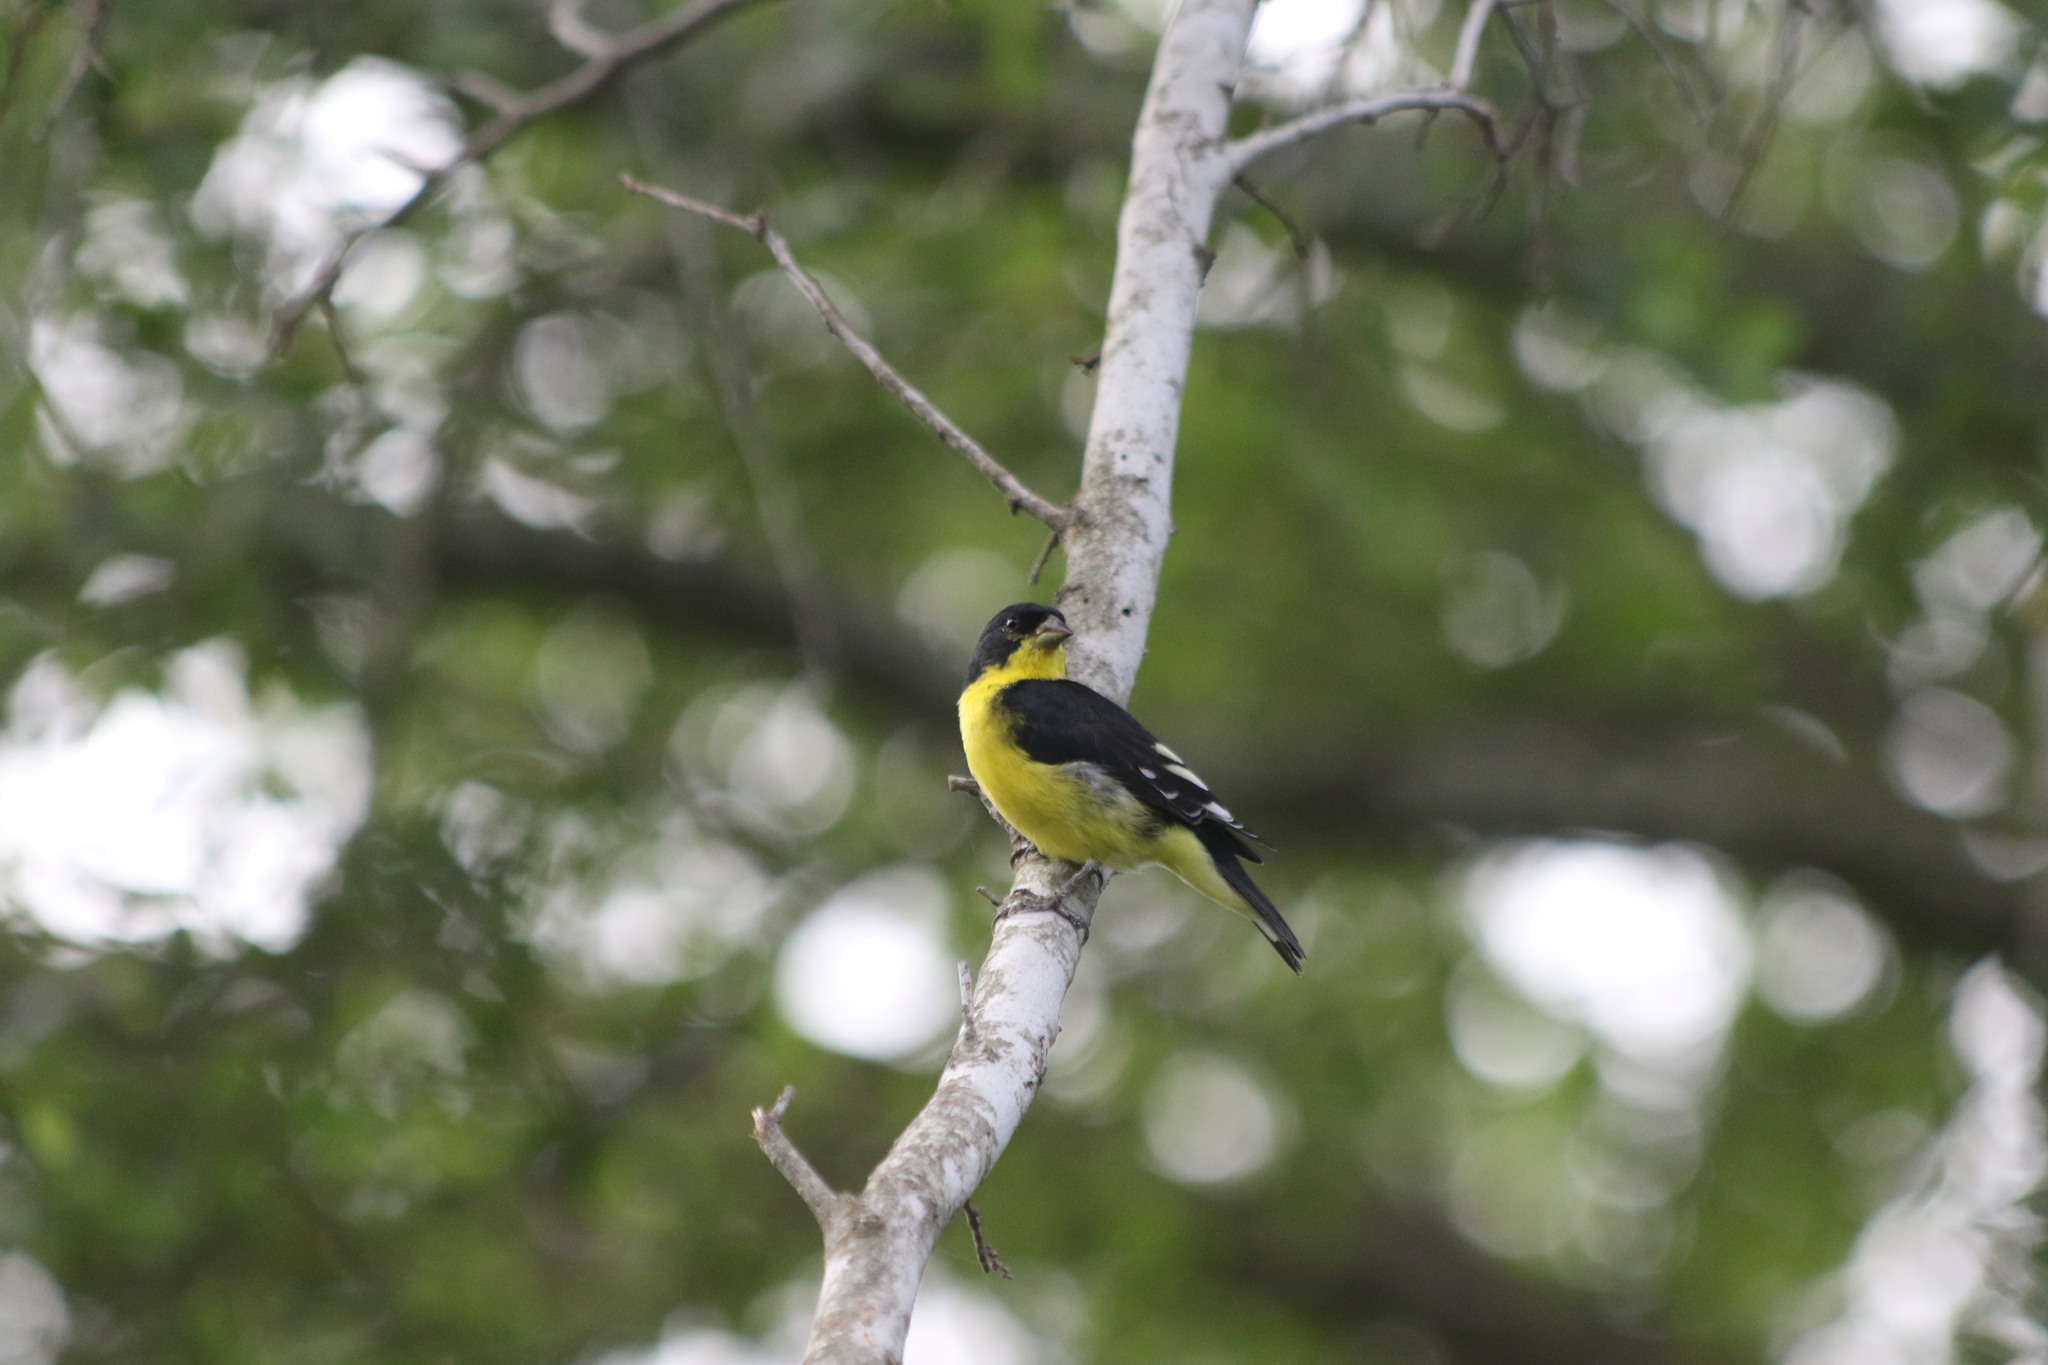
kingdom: Animalia
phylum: Chordata
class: Aves
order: Passeriformes
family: Fringillidae
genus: Spinus
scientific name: Spinus psaltria
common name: Lesser goldfinch
